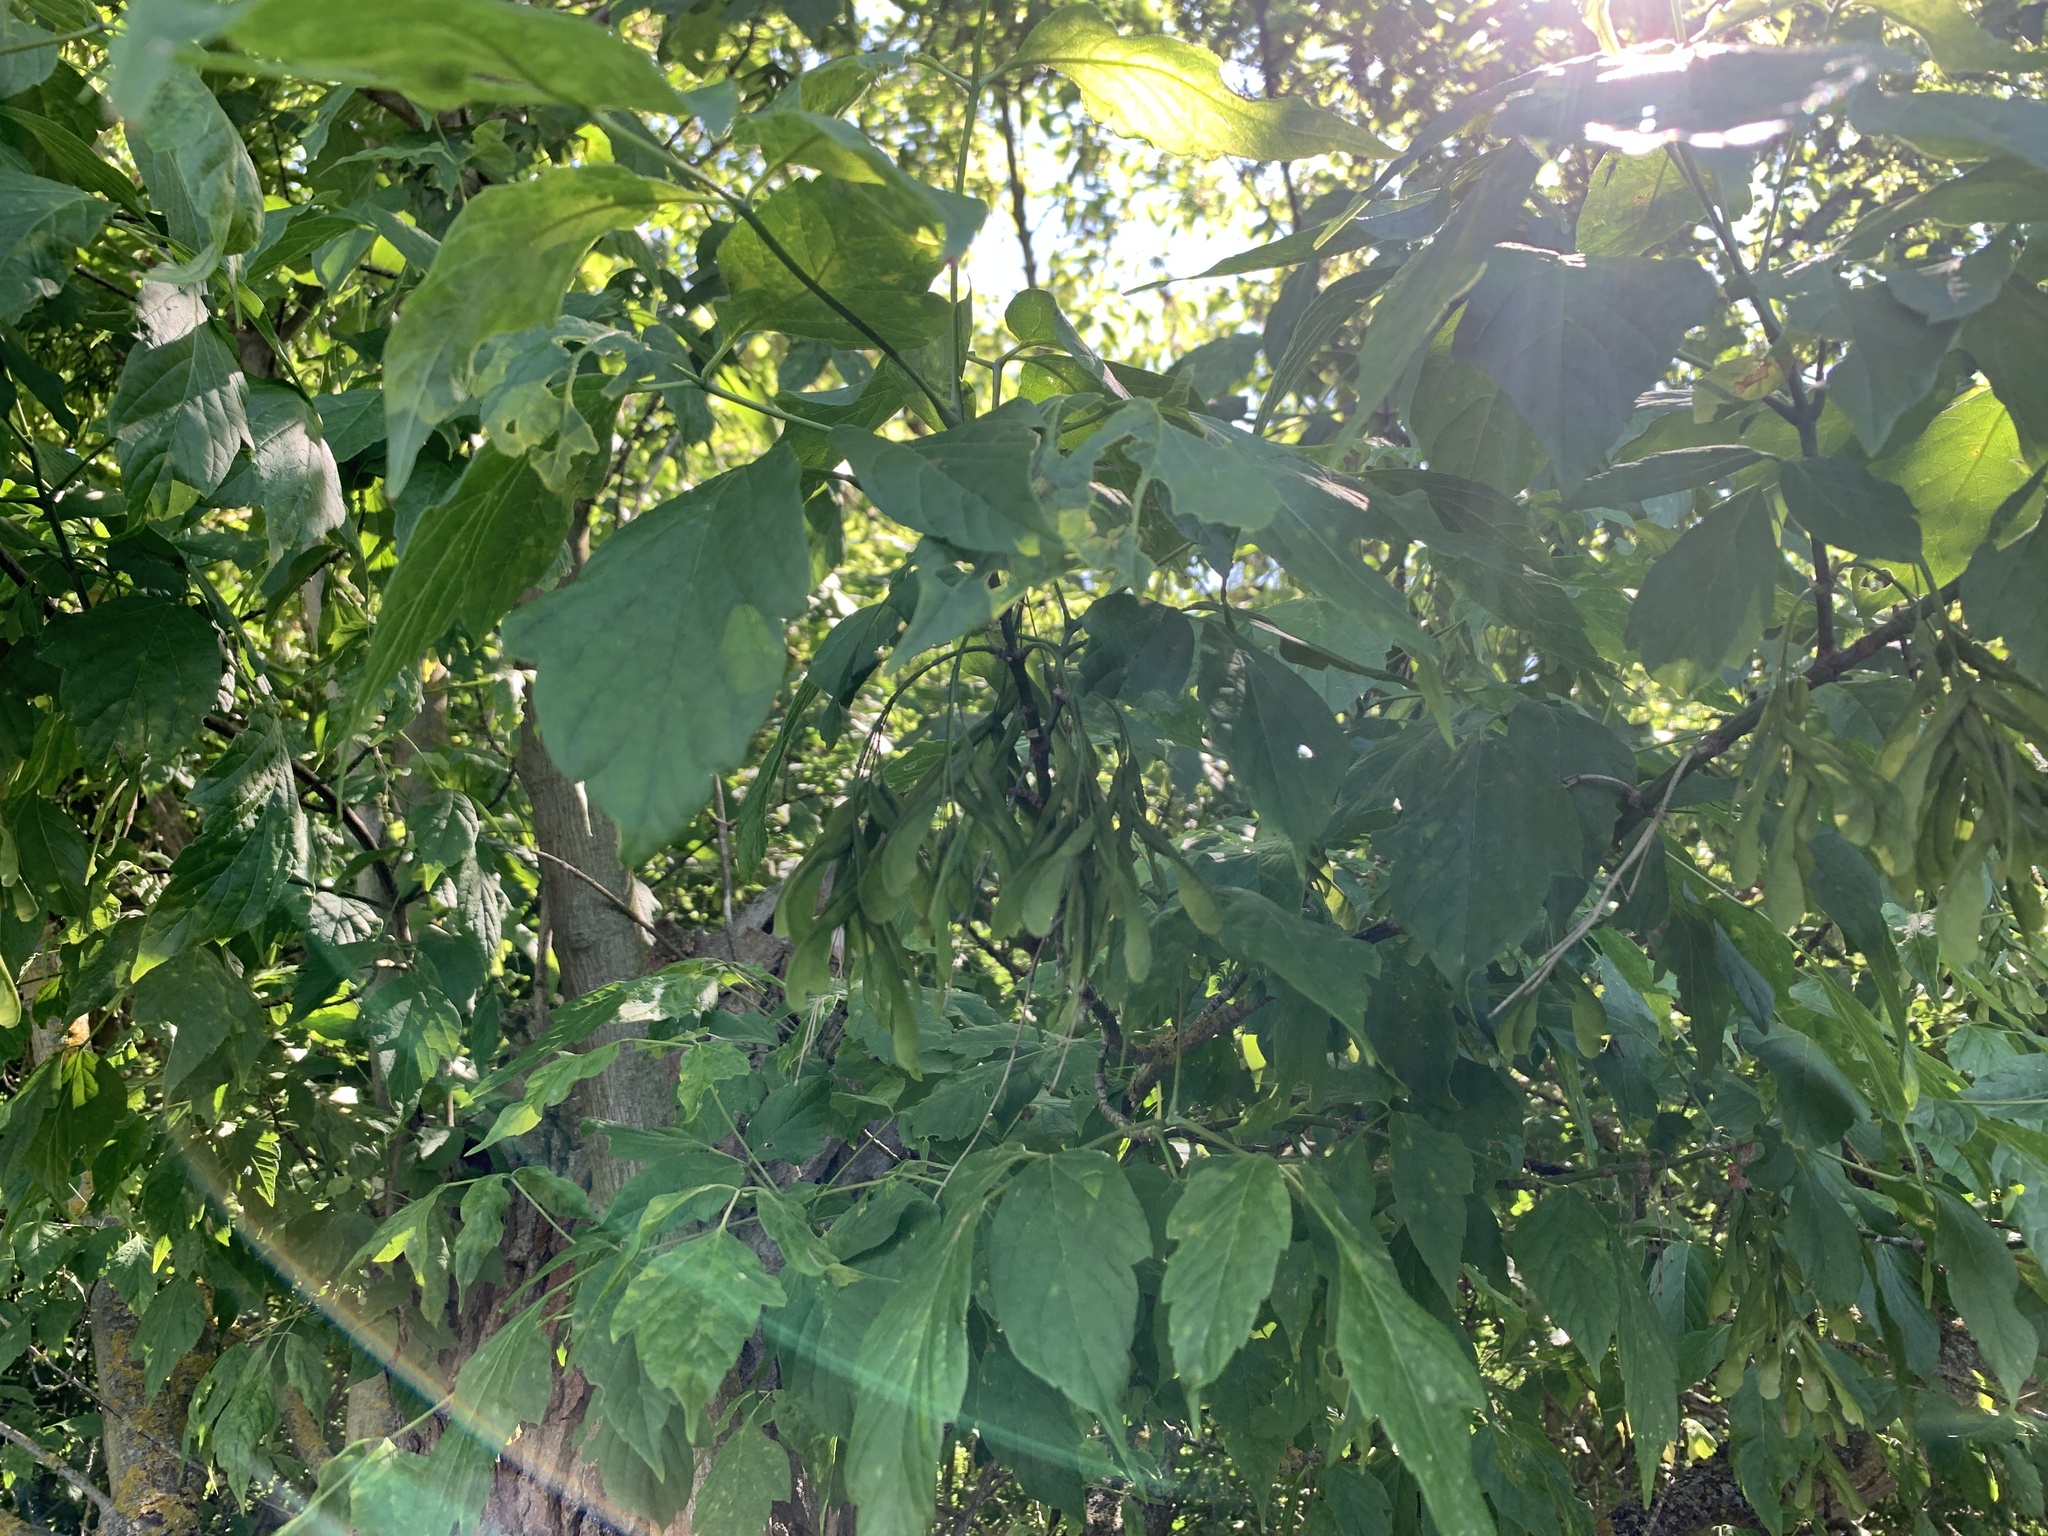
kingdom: Plantae
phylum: Tracheophyta
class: Magnoliopsida
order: Sapindales
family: Sapindaceae
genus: Acer
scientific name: Acer negundo
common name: Ashleaf maple
